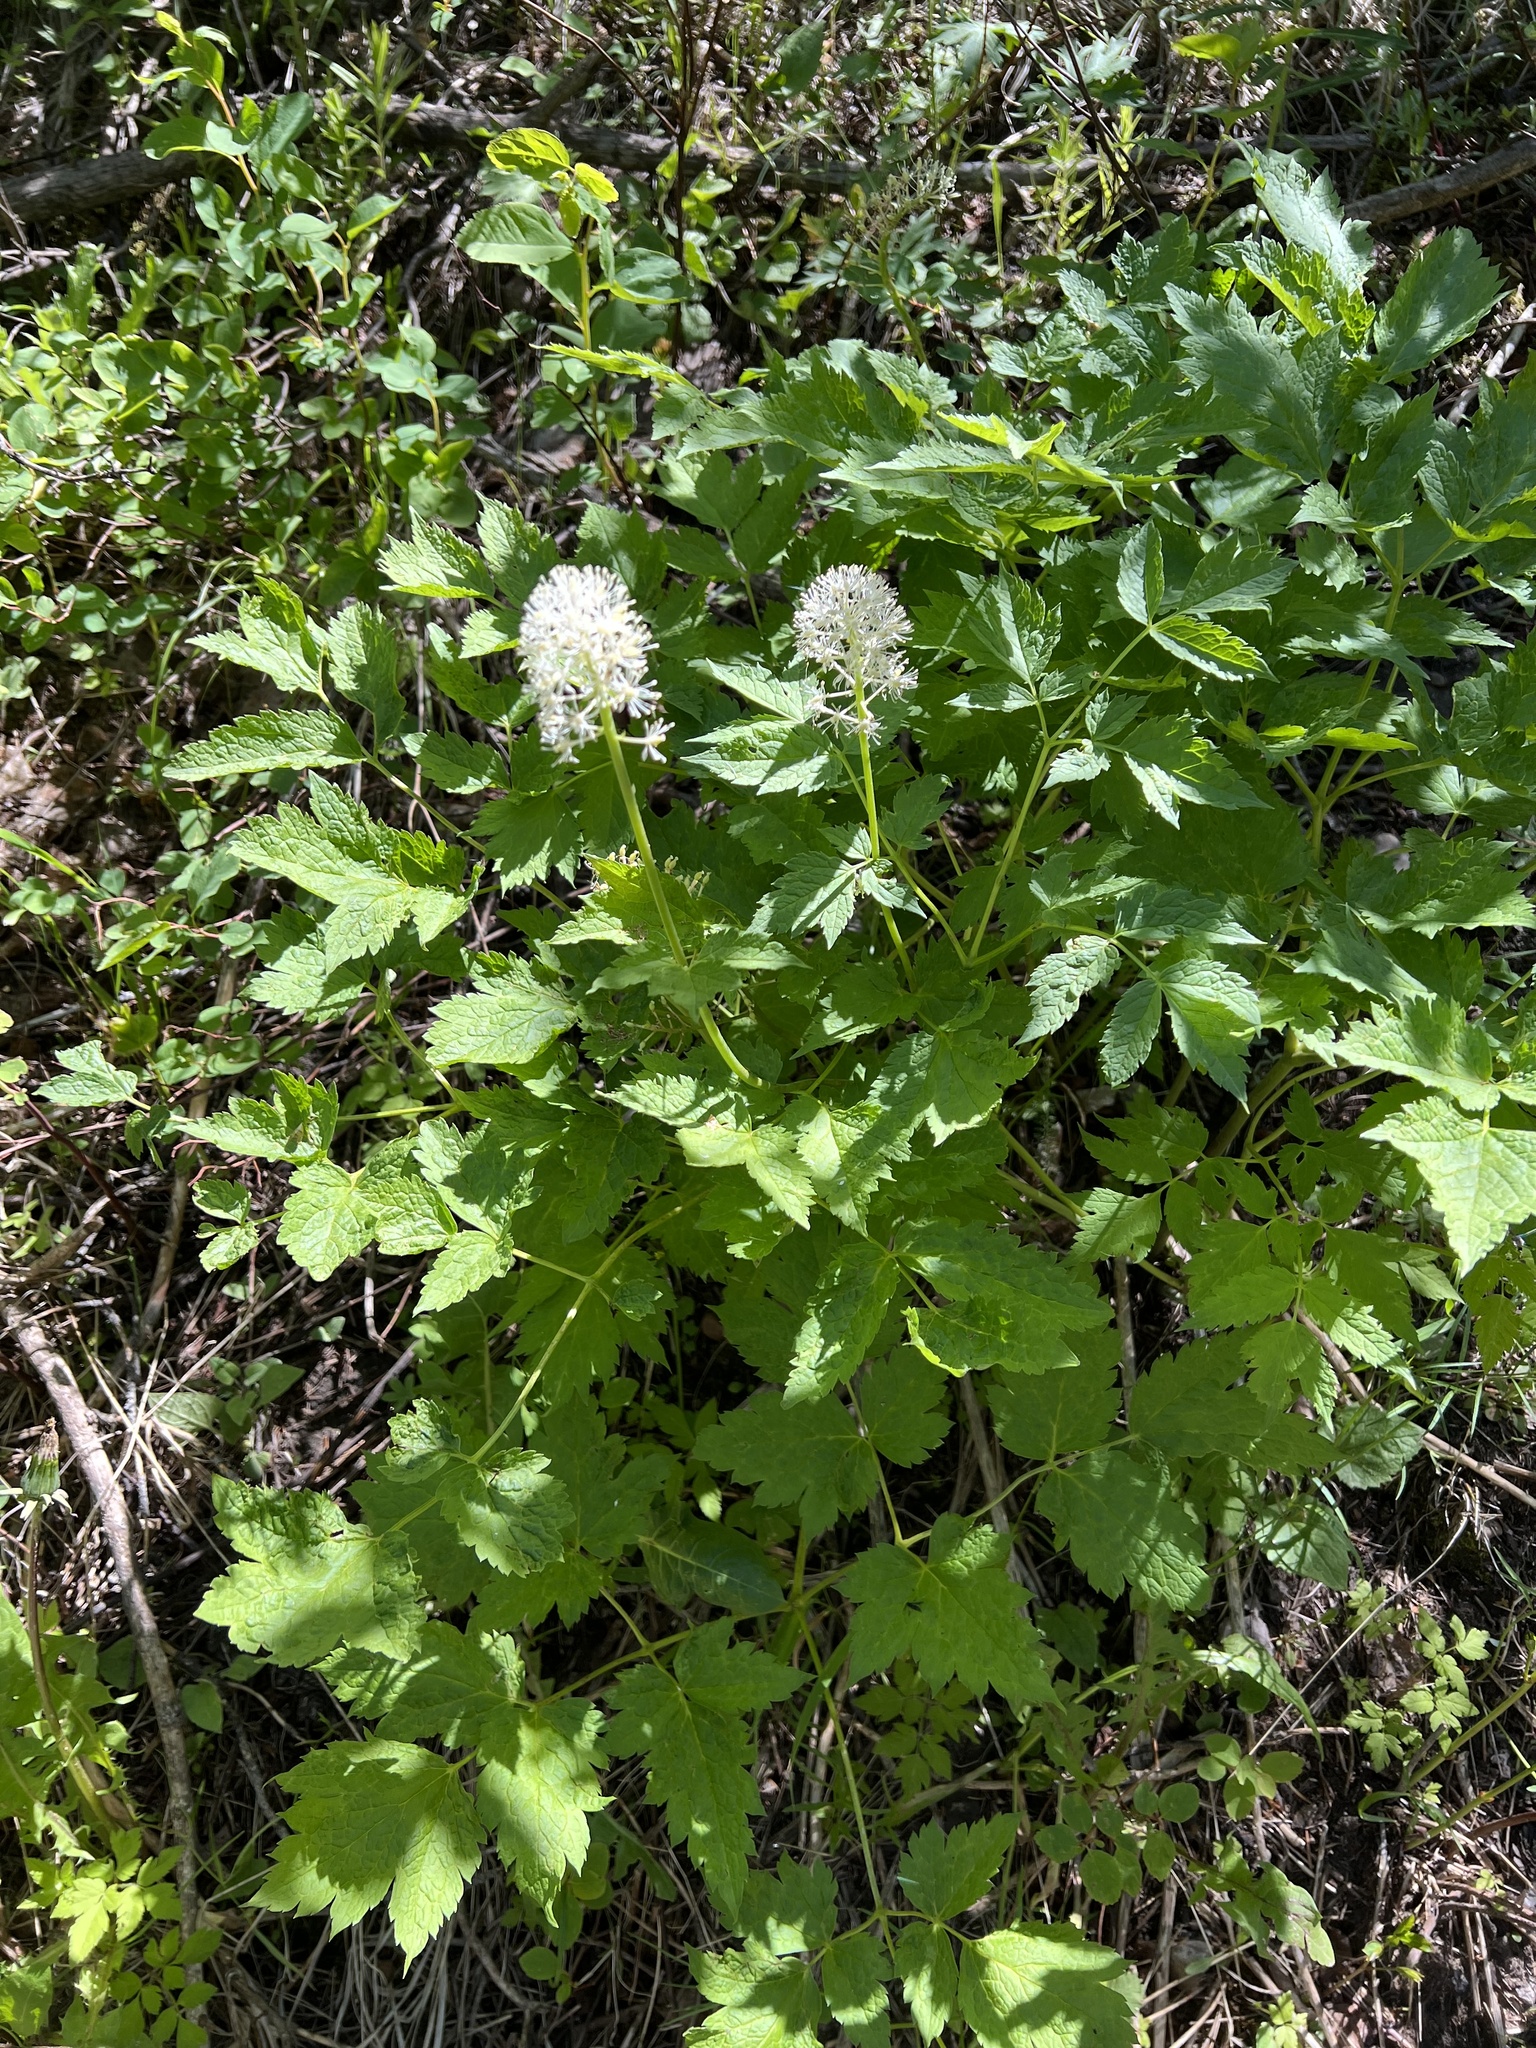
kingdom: Plantae
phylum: Tracheophyta
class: Magnoliopsida
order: Ranunculales
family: Ranunculaceae
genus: Actaea
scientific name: Actaea rubra
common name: Red baneberry
